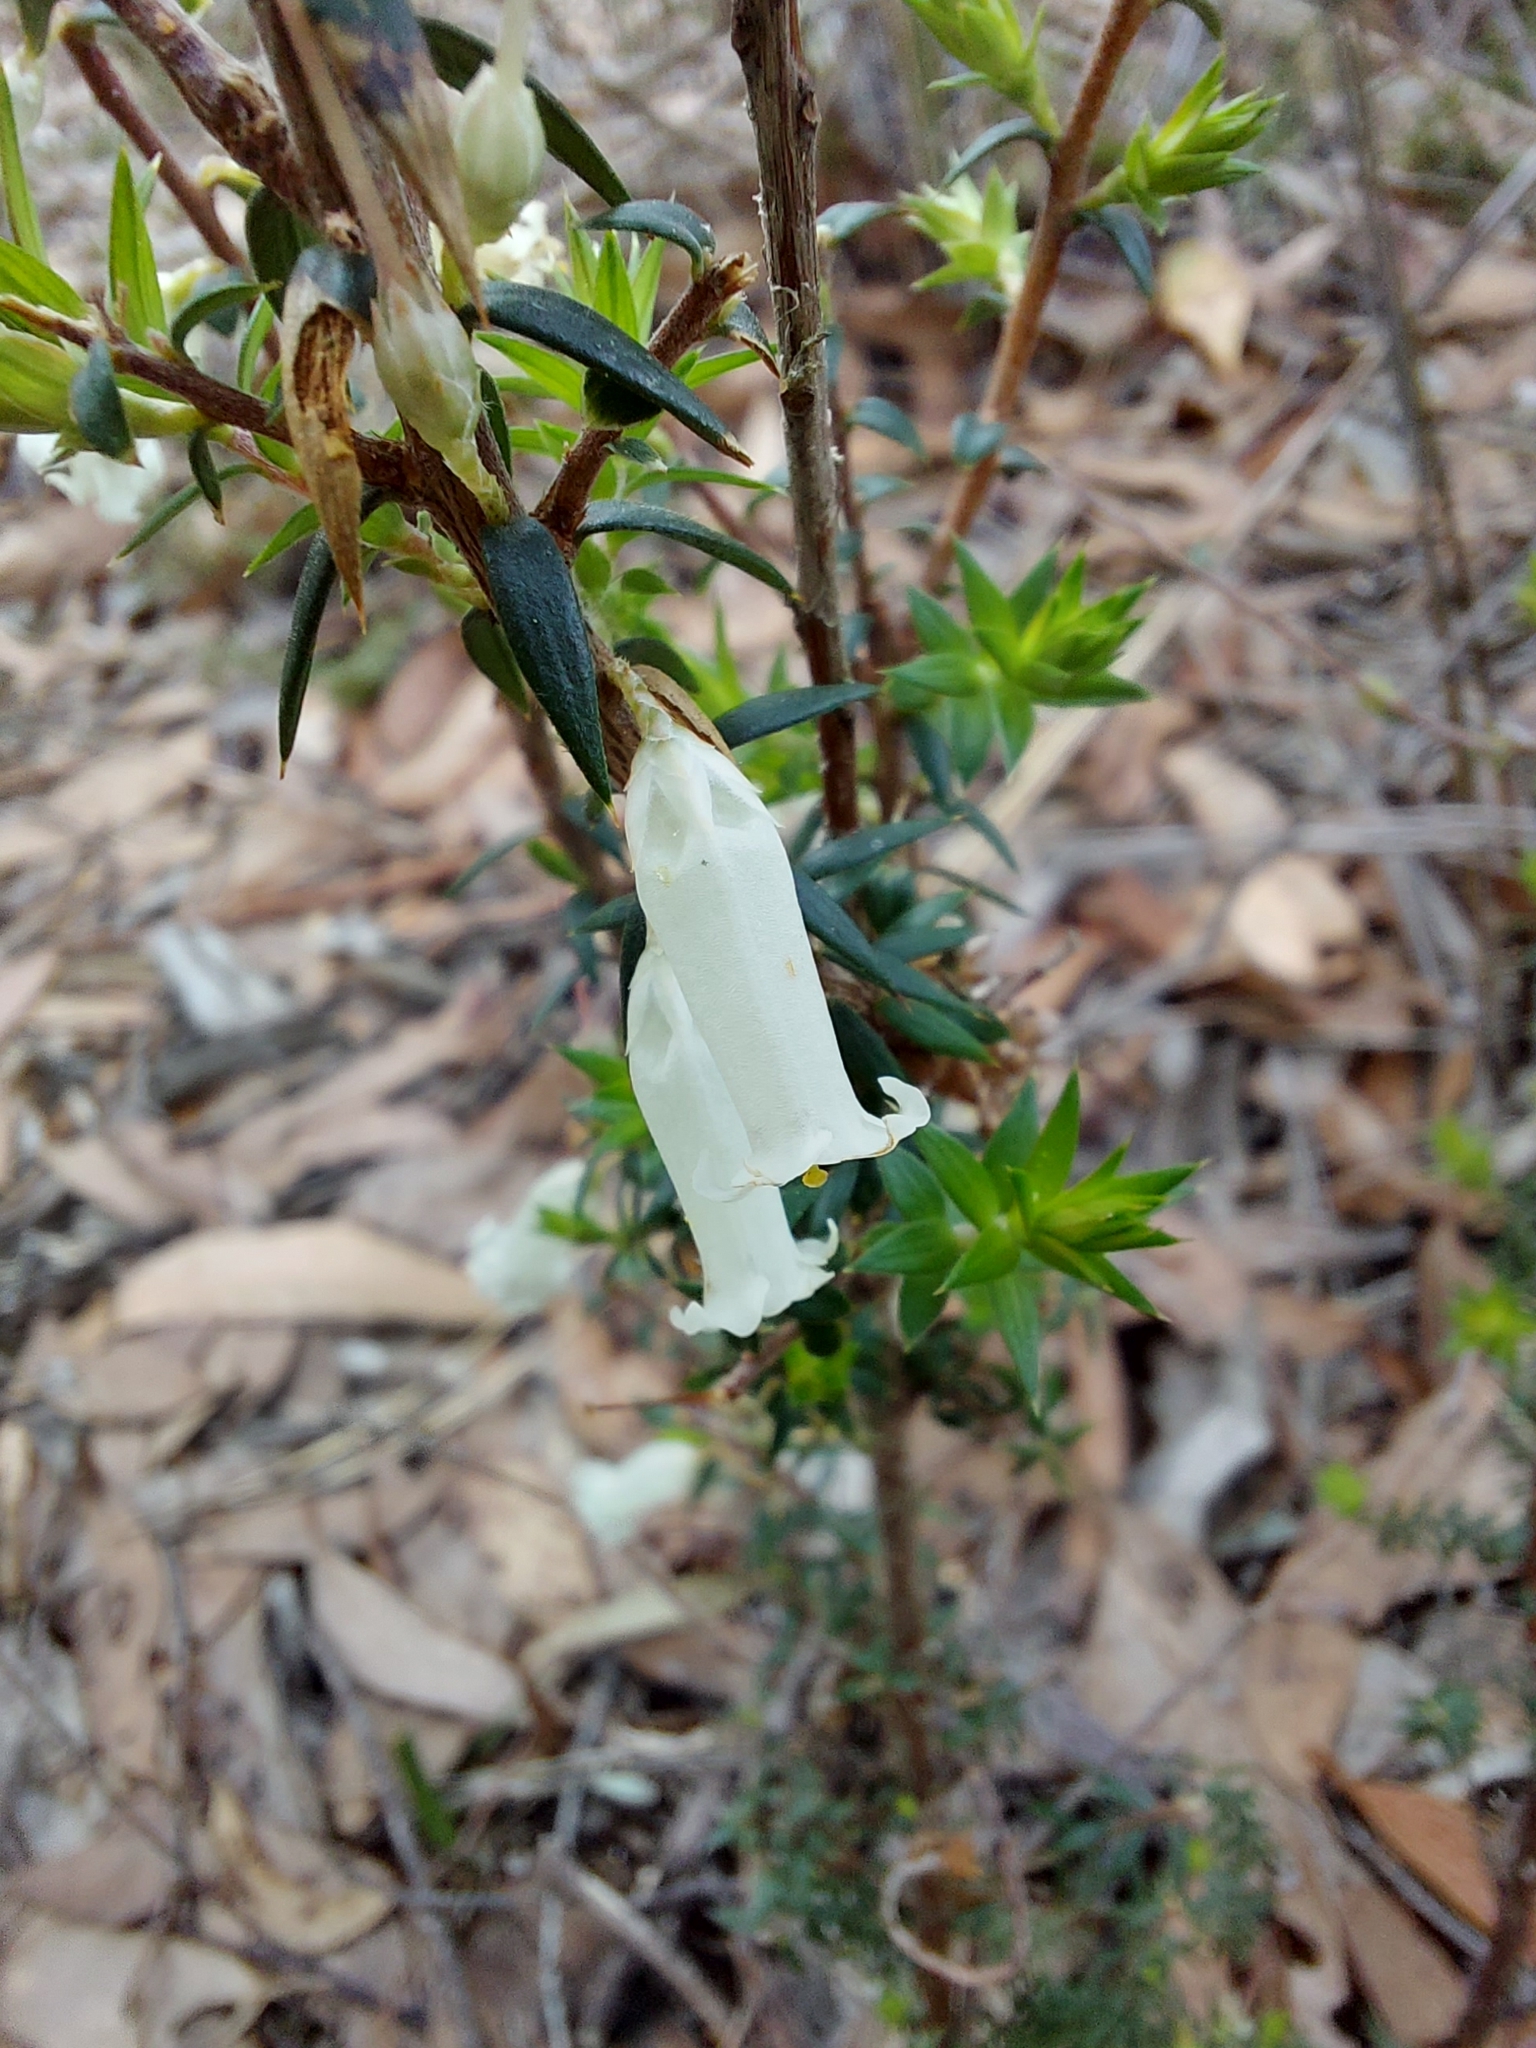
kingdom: Plantae
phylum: Tracheophyta
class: Magnoliopsida
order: Ericales
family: Ericaceae
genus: Epacris
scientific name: Epacris impressa
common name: Common-heath
